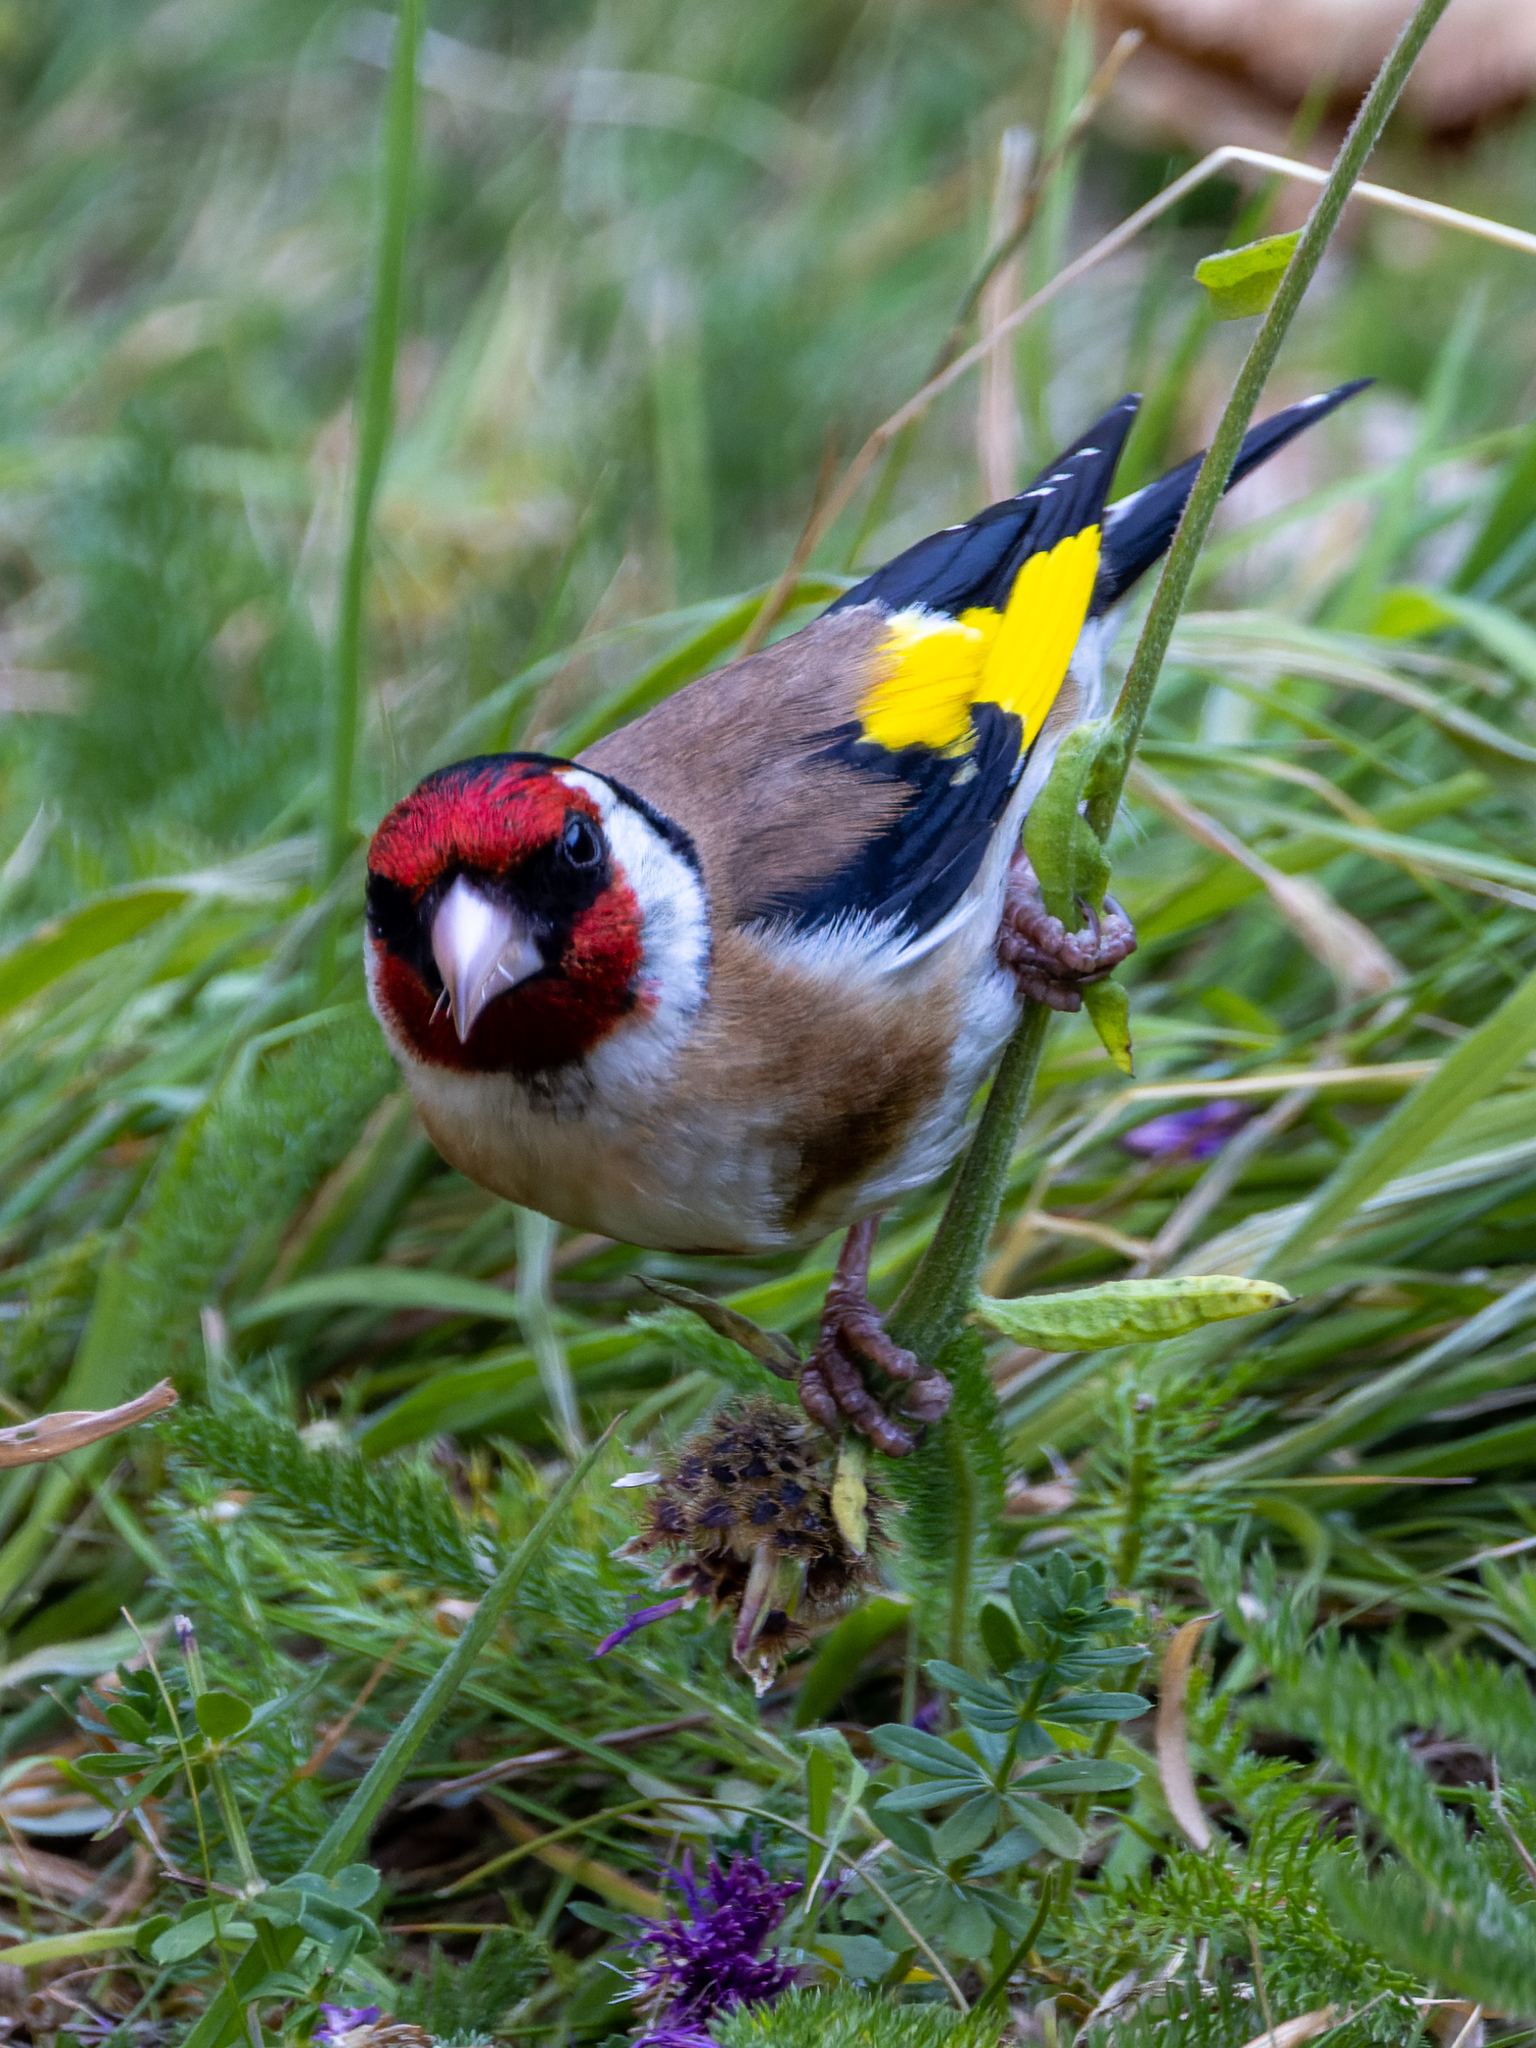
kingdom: Animalia
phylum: Chordata
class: Aves
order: Passeriformes
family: Fringillidae
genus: Carduelis
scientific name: Carduelis carduelis
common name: European goldfinch
